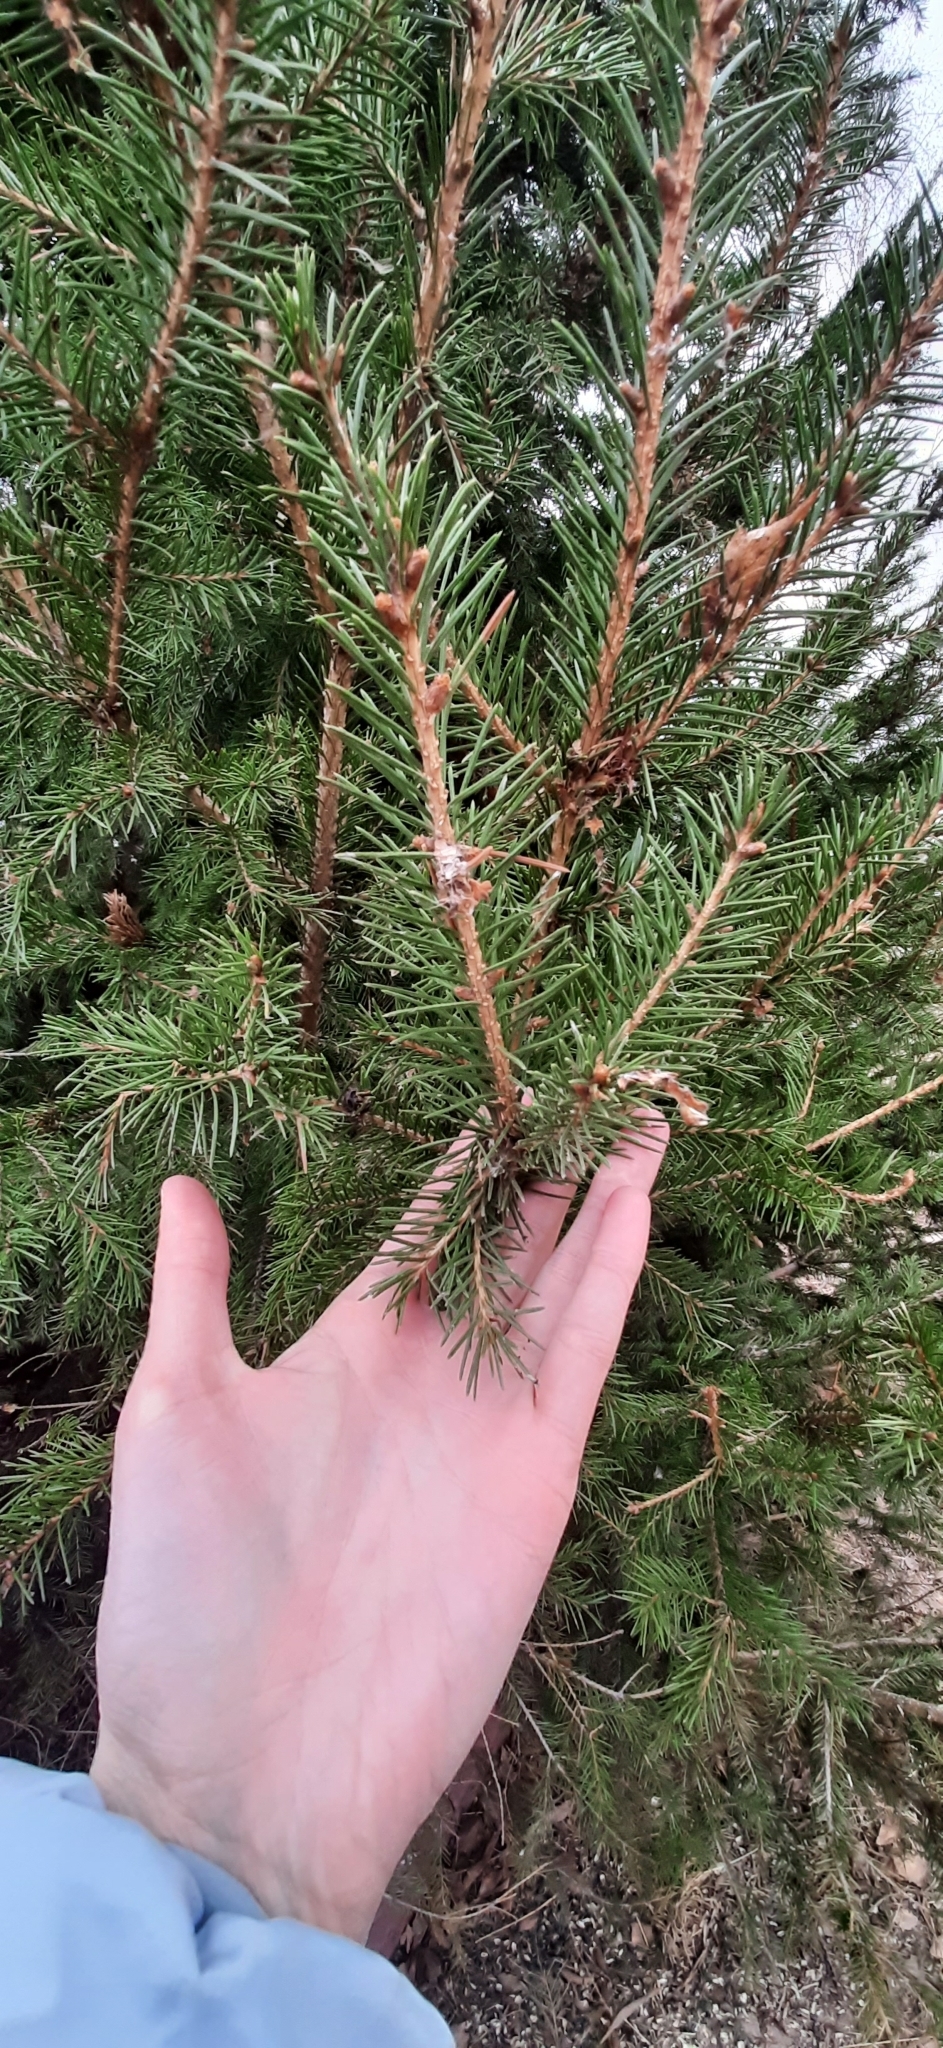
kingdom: Plantae
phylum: Tracheophyta
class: Pinopsida
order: Pinales
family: Pinaceae
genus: Picea
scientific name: Picea obovata
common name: Siberian spruce
